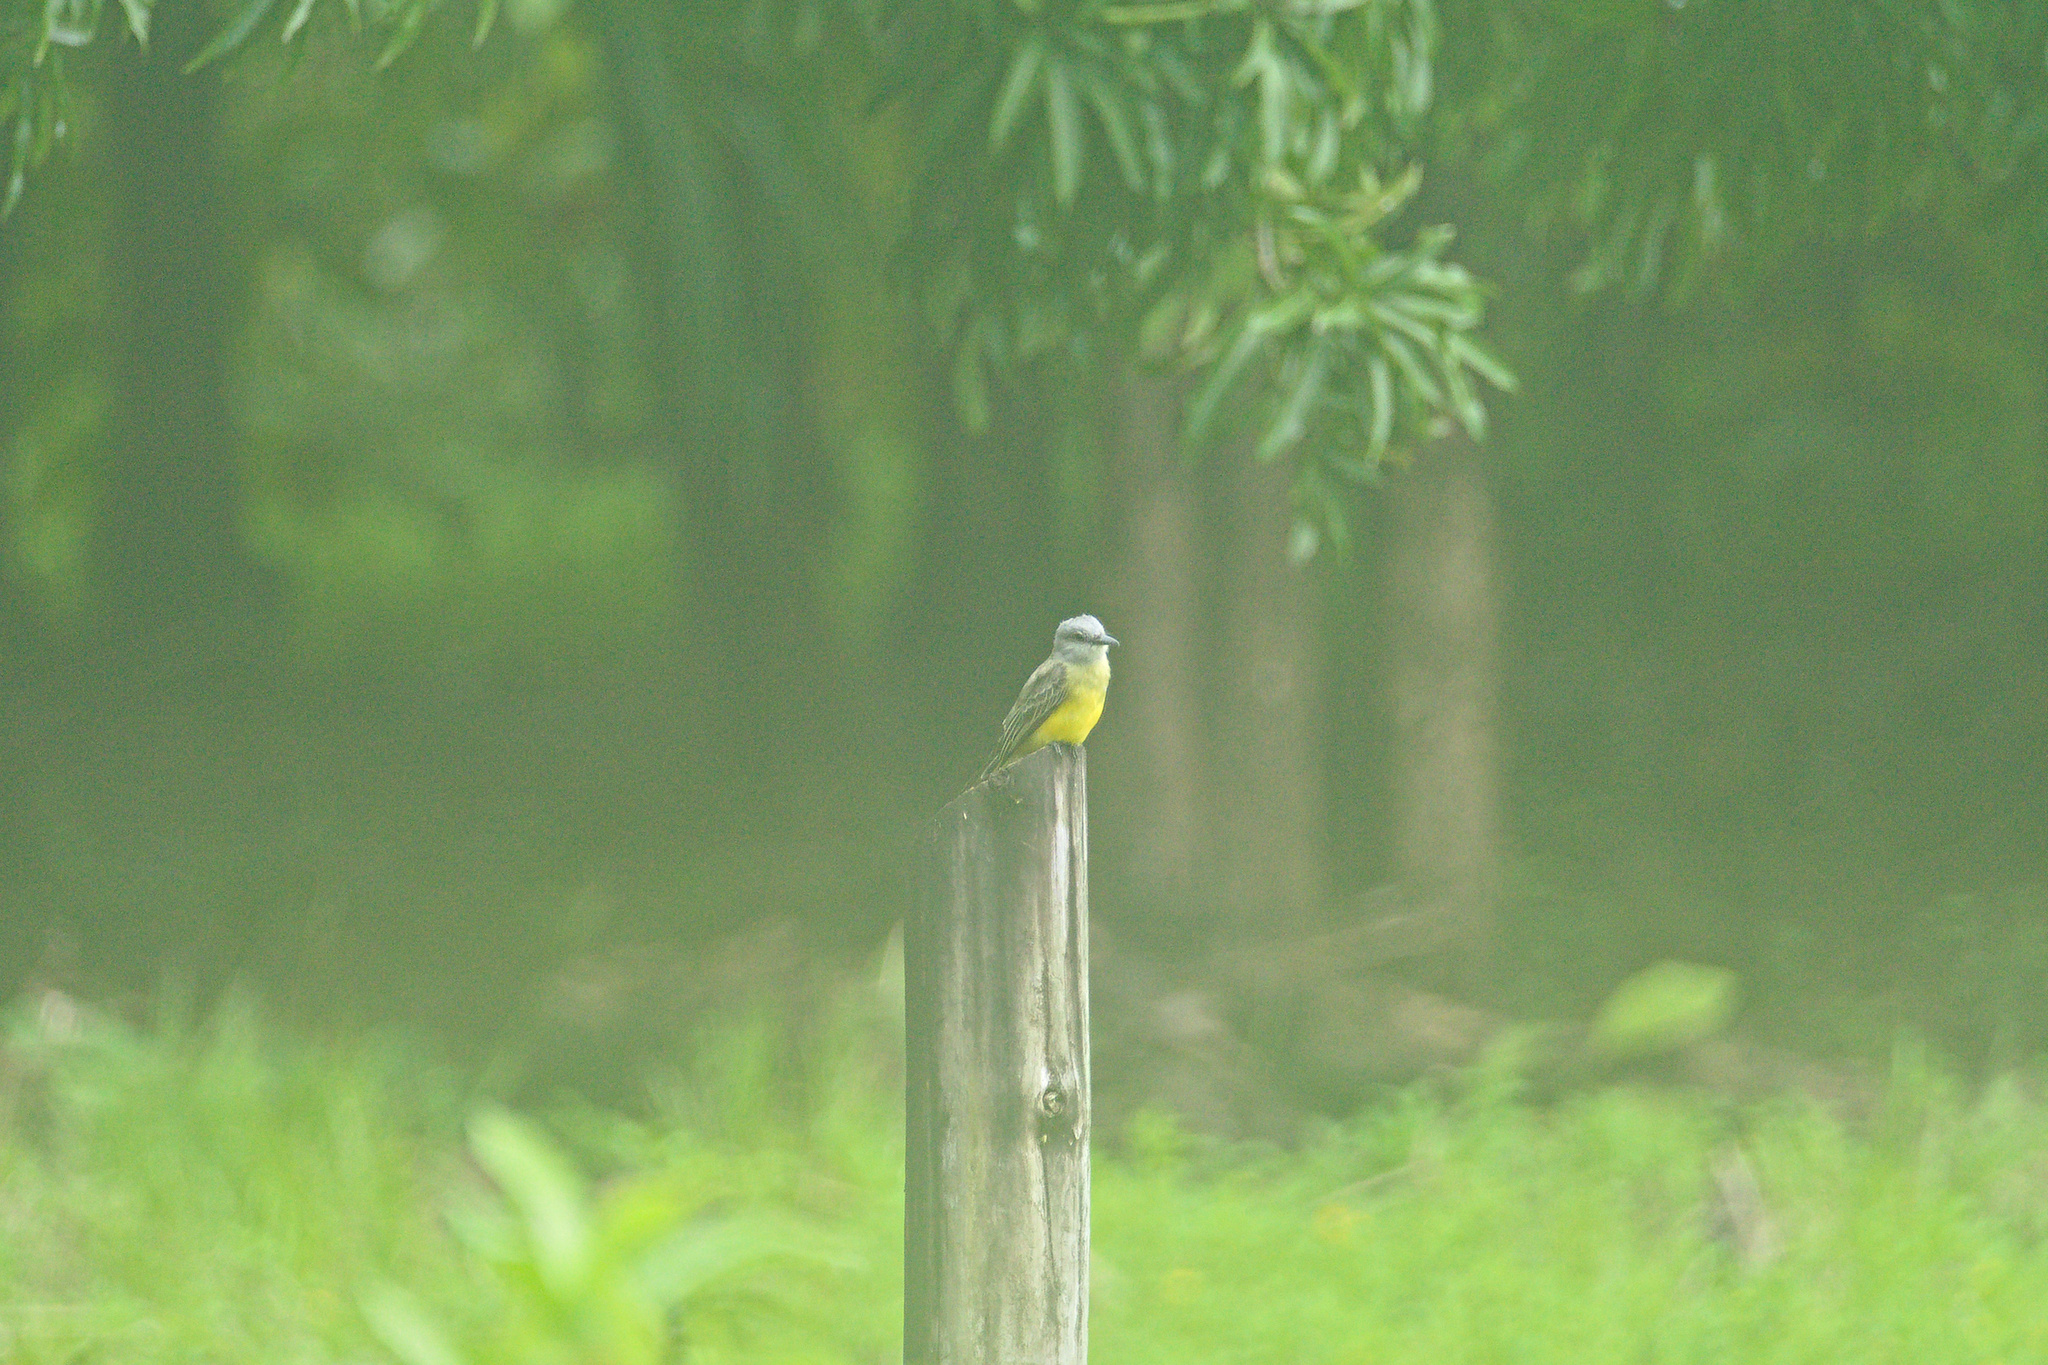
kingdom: Animalia
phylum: Chordata
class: Aves
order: Passeriformes
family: Tyrannidae
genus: Tyrannus
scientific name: Tyrannus melancholicus
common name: Tropical kingbird
